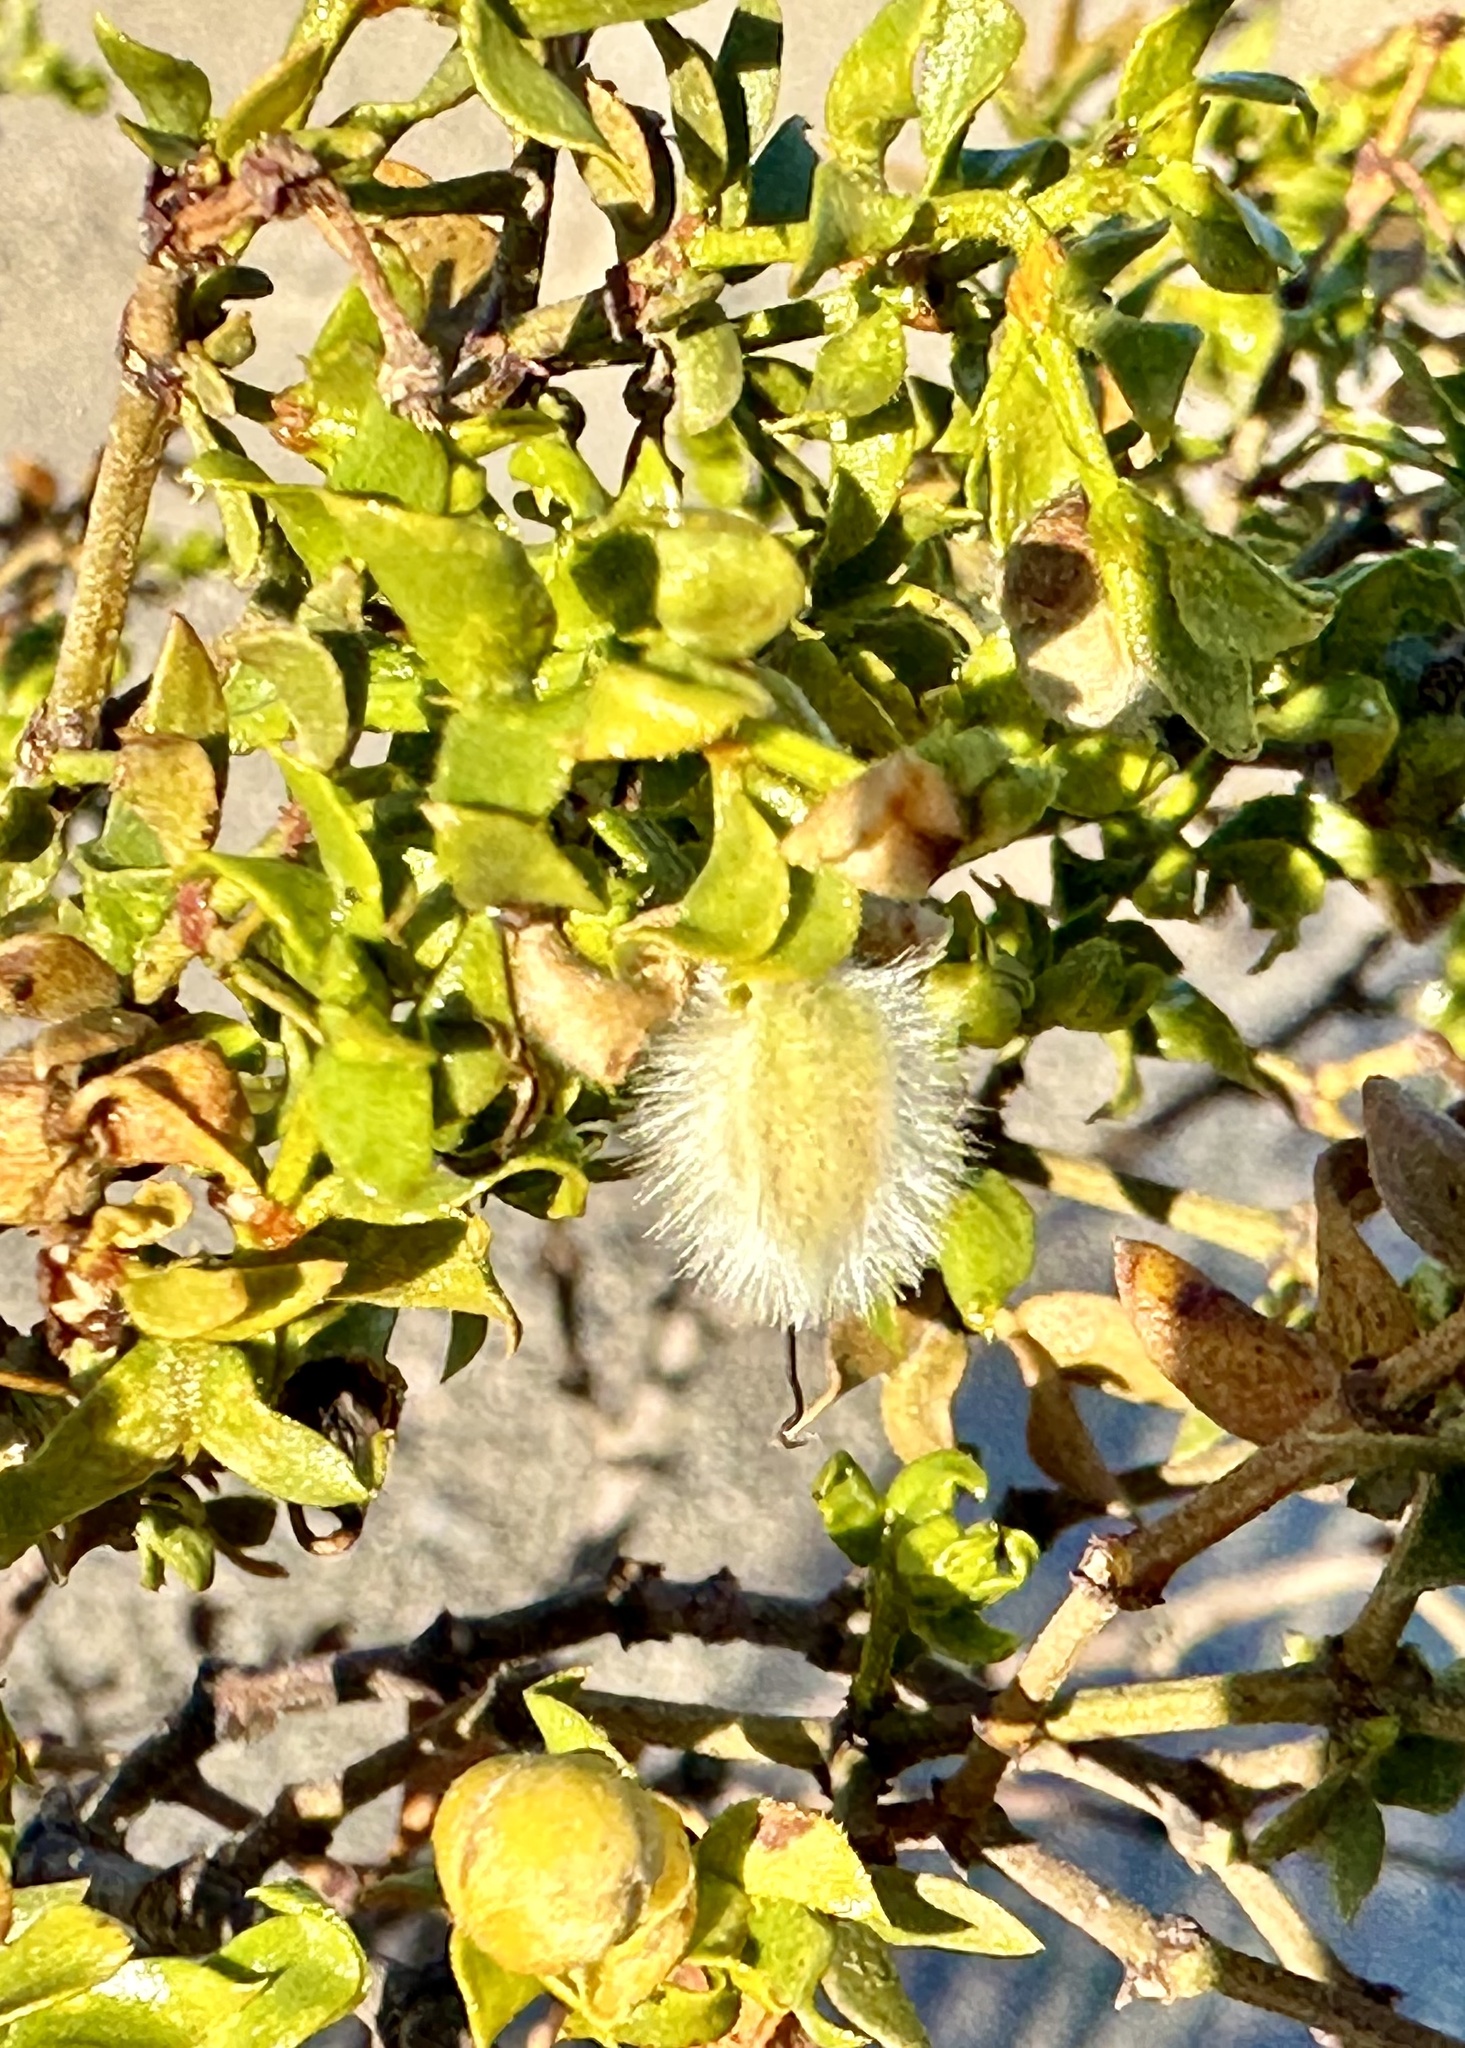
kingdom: Plantae
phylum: Tracheophyta
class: Magnoliopsida
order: Zygophyllales
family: Zygophyllaceae
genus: Larrea
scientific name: Larrea tridentata
